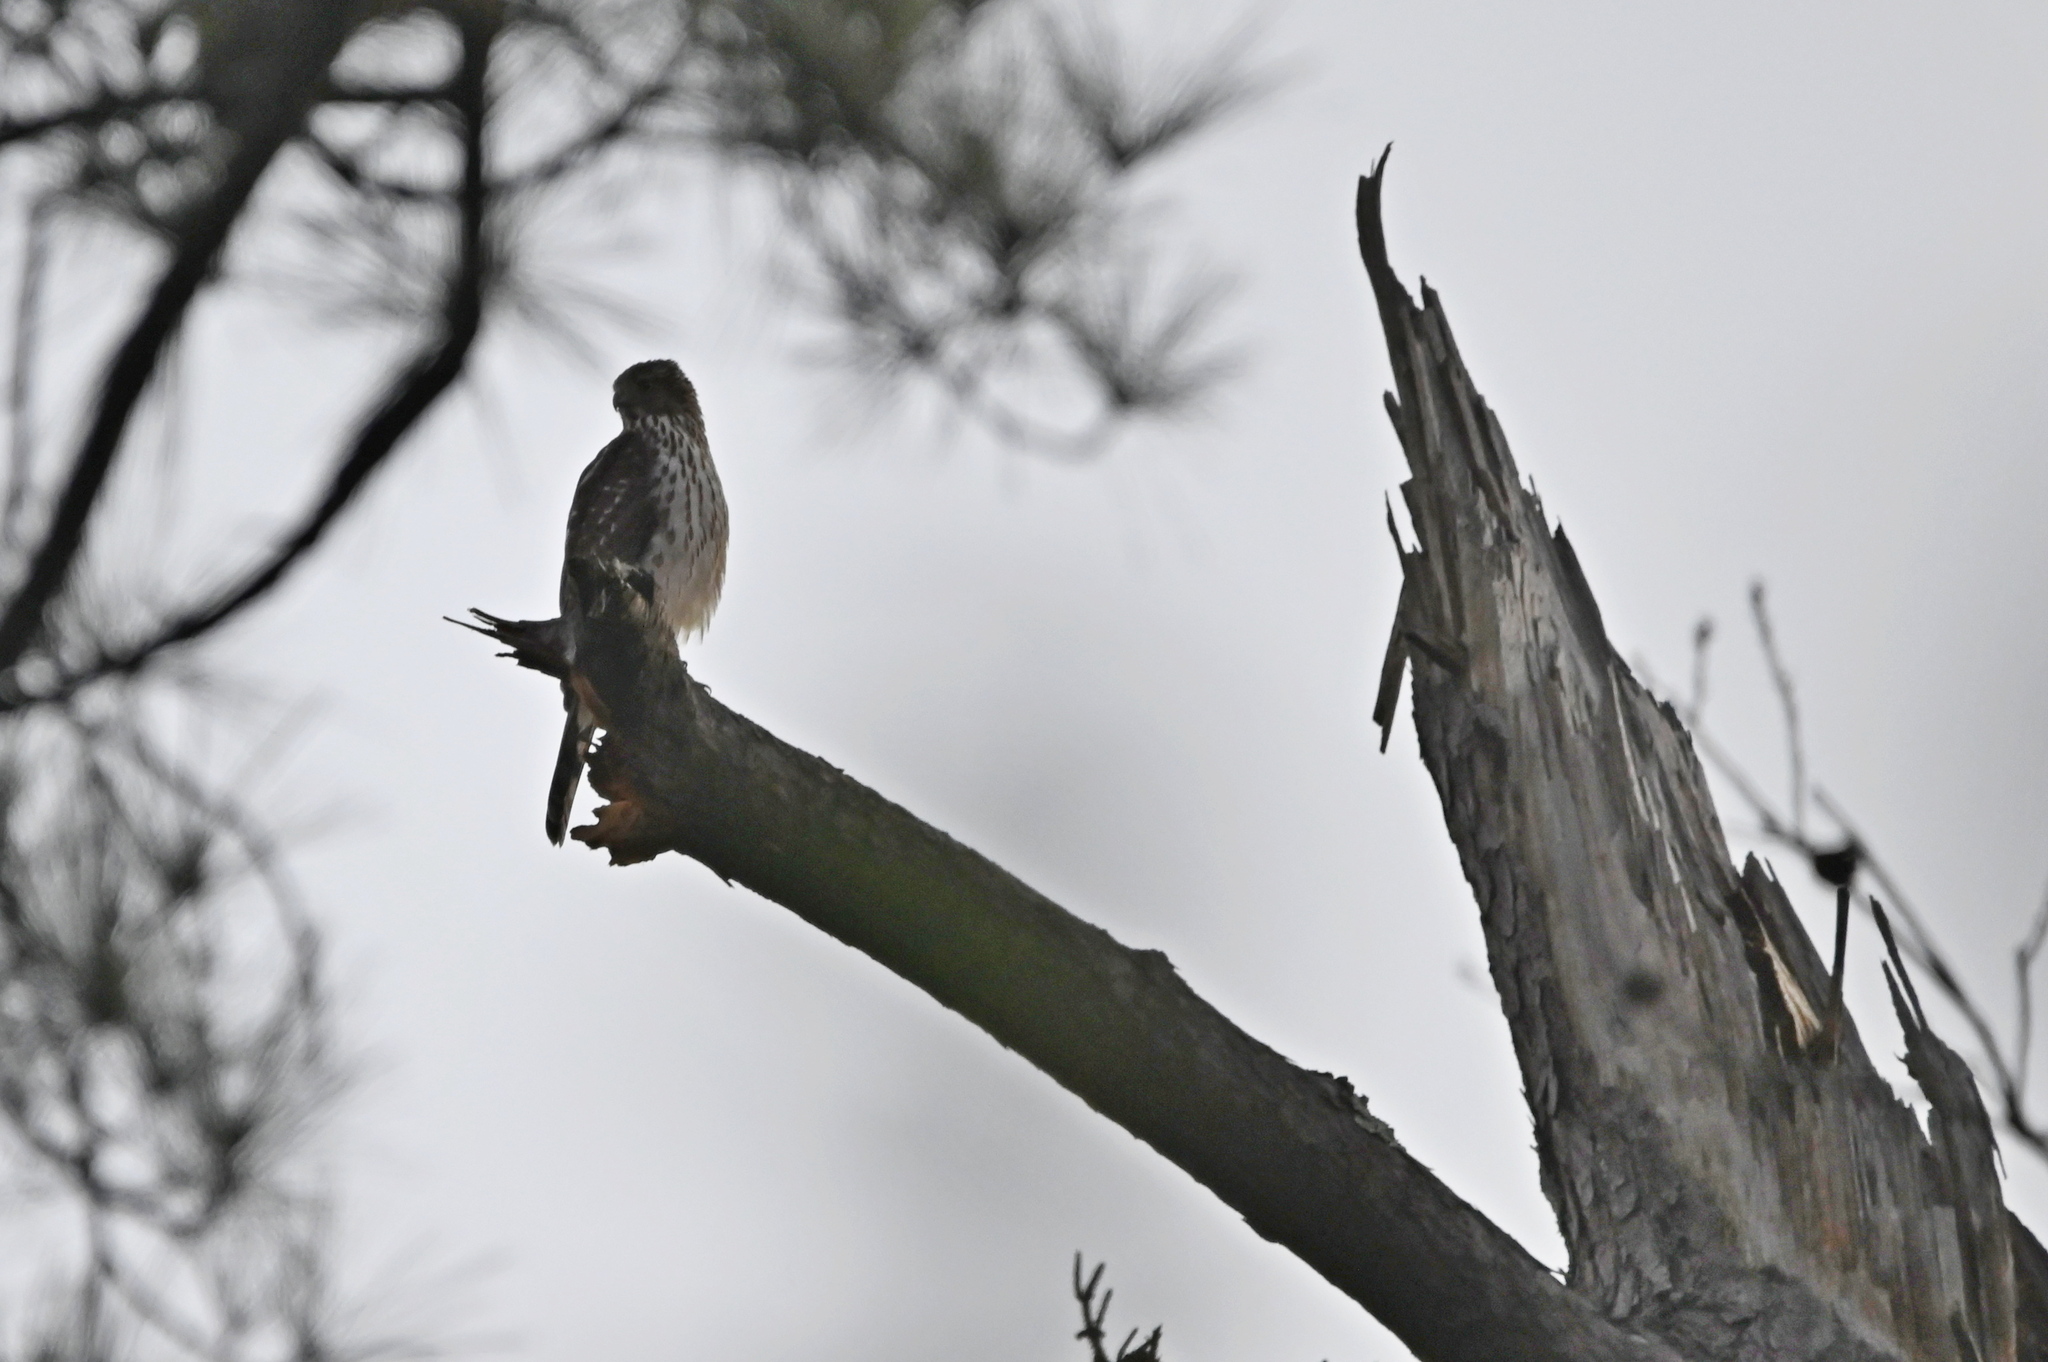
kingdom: Animalia
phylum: Chordata
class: Aves
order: Accipitriformes
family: Accipitridae
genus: Accipiter
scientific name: Accipiter cooperii
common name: Cooper's hawk
